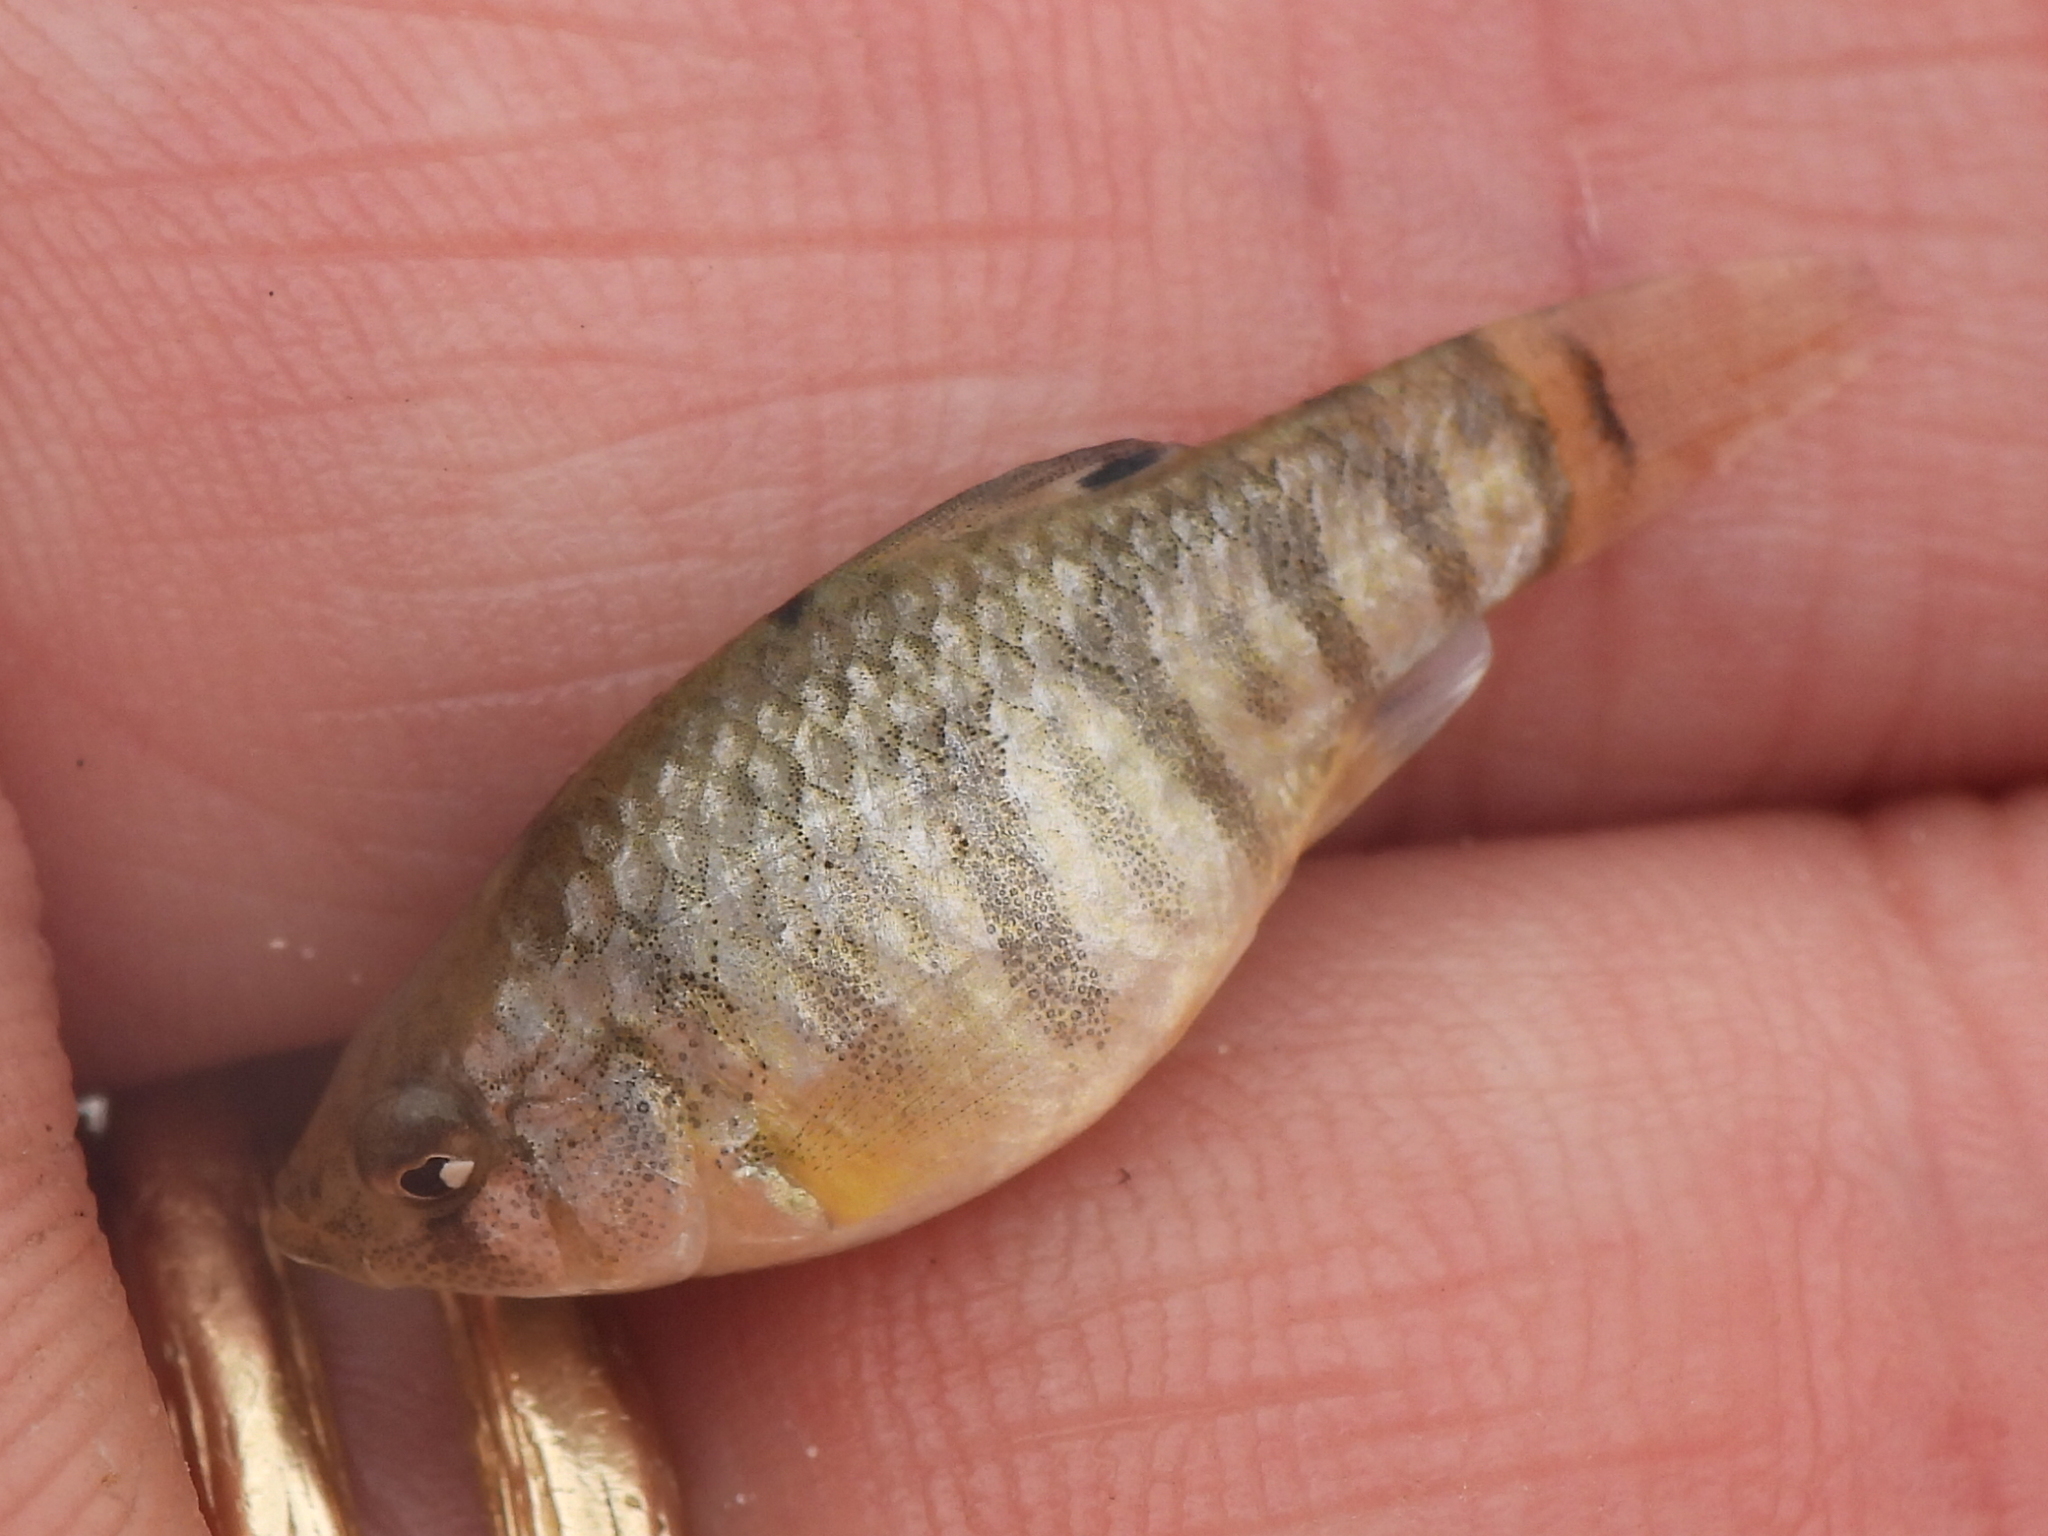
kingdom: Animalia
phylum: Chordata
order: Cyprinodontiformes
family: Cyprinodontidae
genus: Cyprinodon
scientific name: Cyprinodon variegatus
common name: Sheepshead minnow
